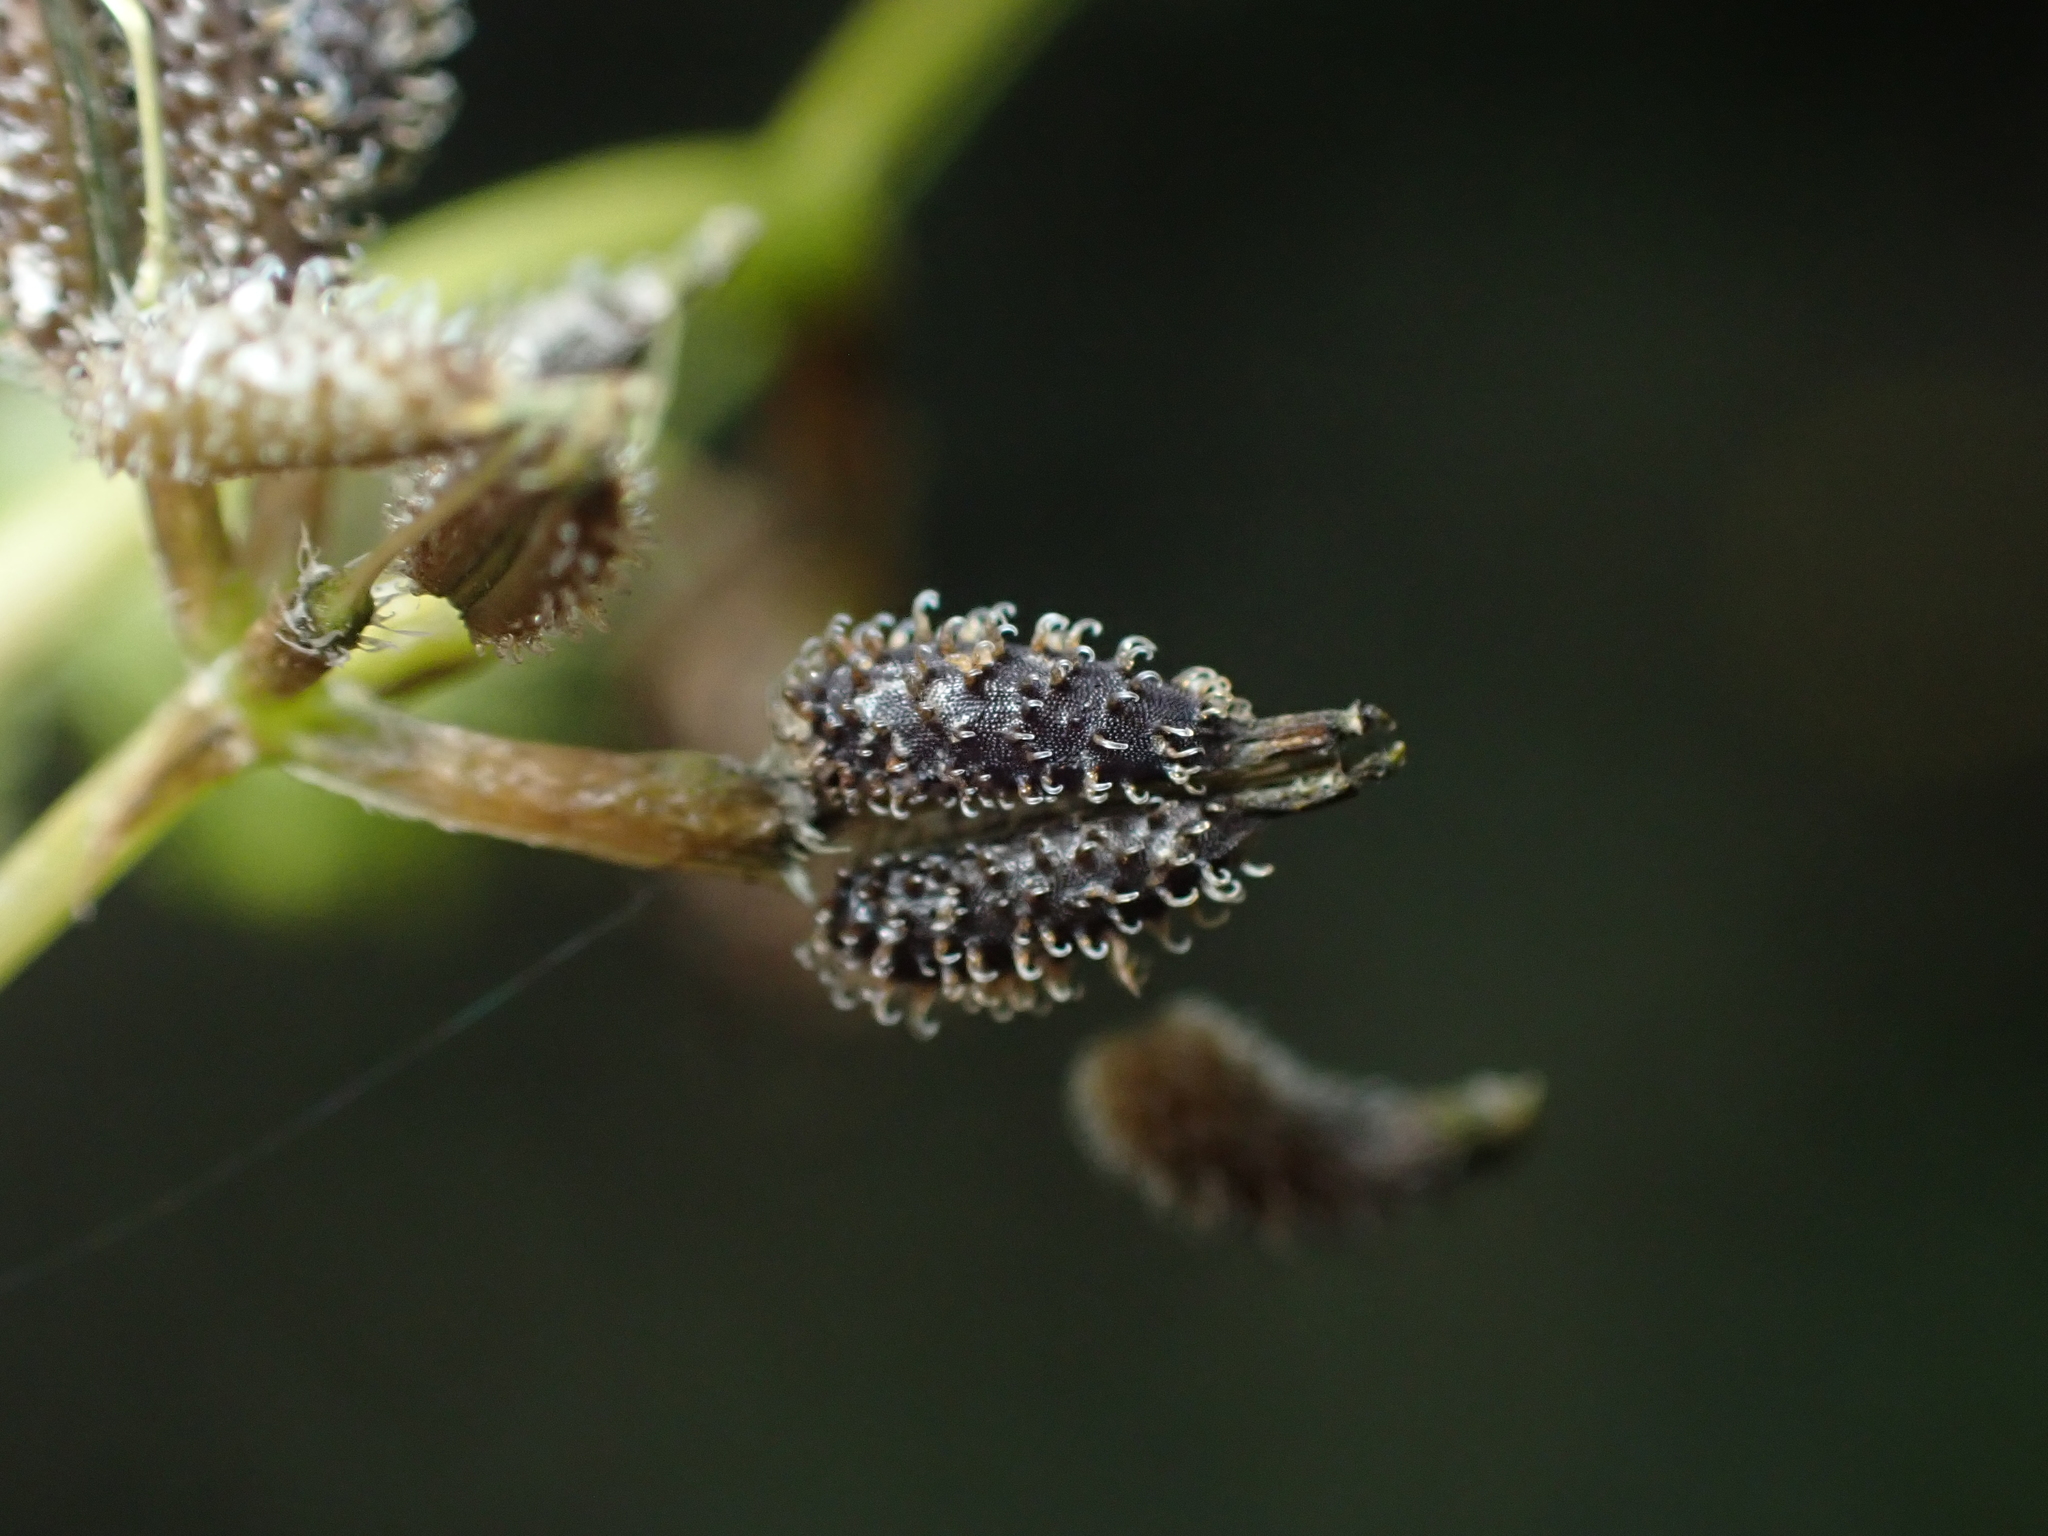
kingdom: Plantae
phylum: Tracheophyta
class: Magnoliopsida
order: Apiales
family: Apiaceae
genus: Anthriscus
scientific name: Anthriscus caucalis
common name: Bur chervil
